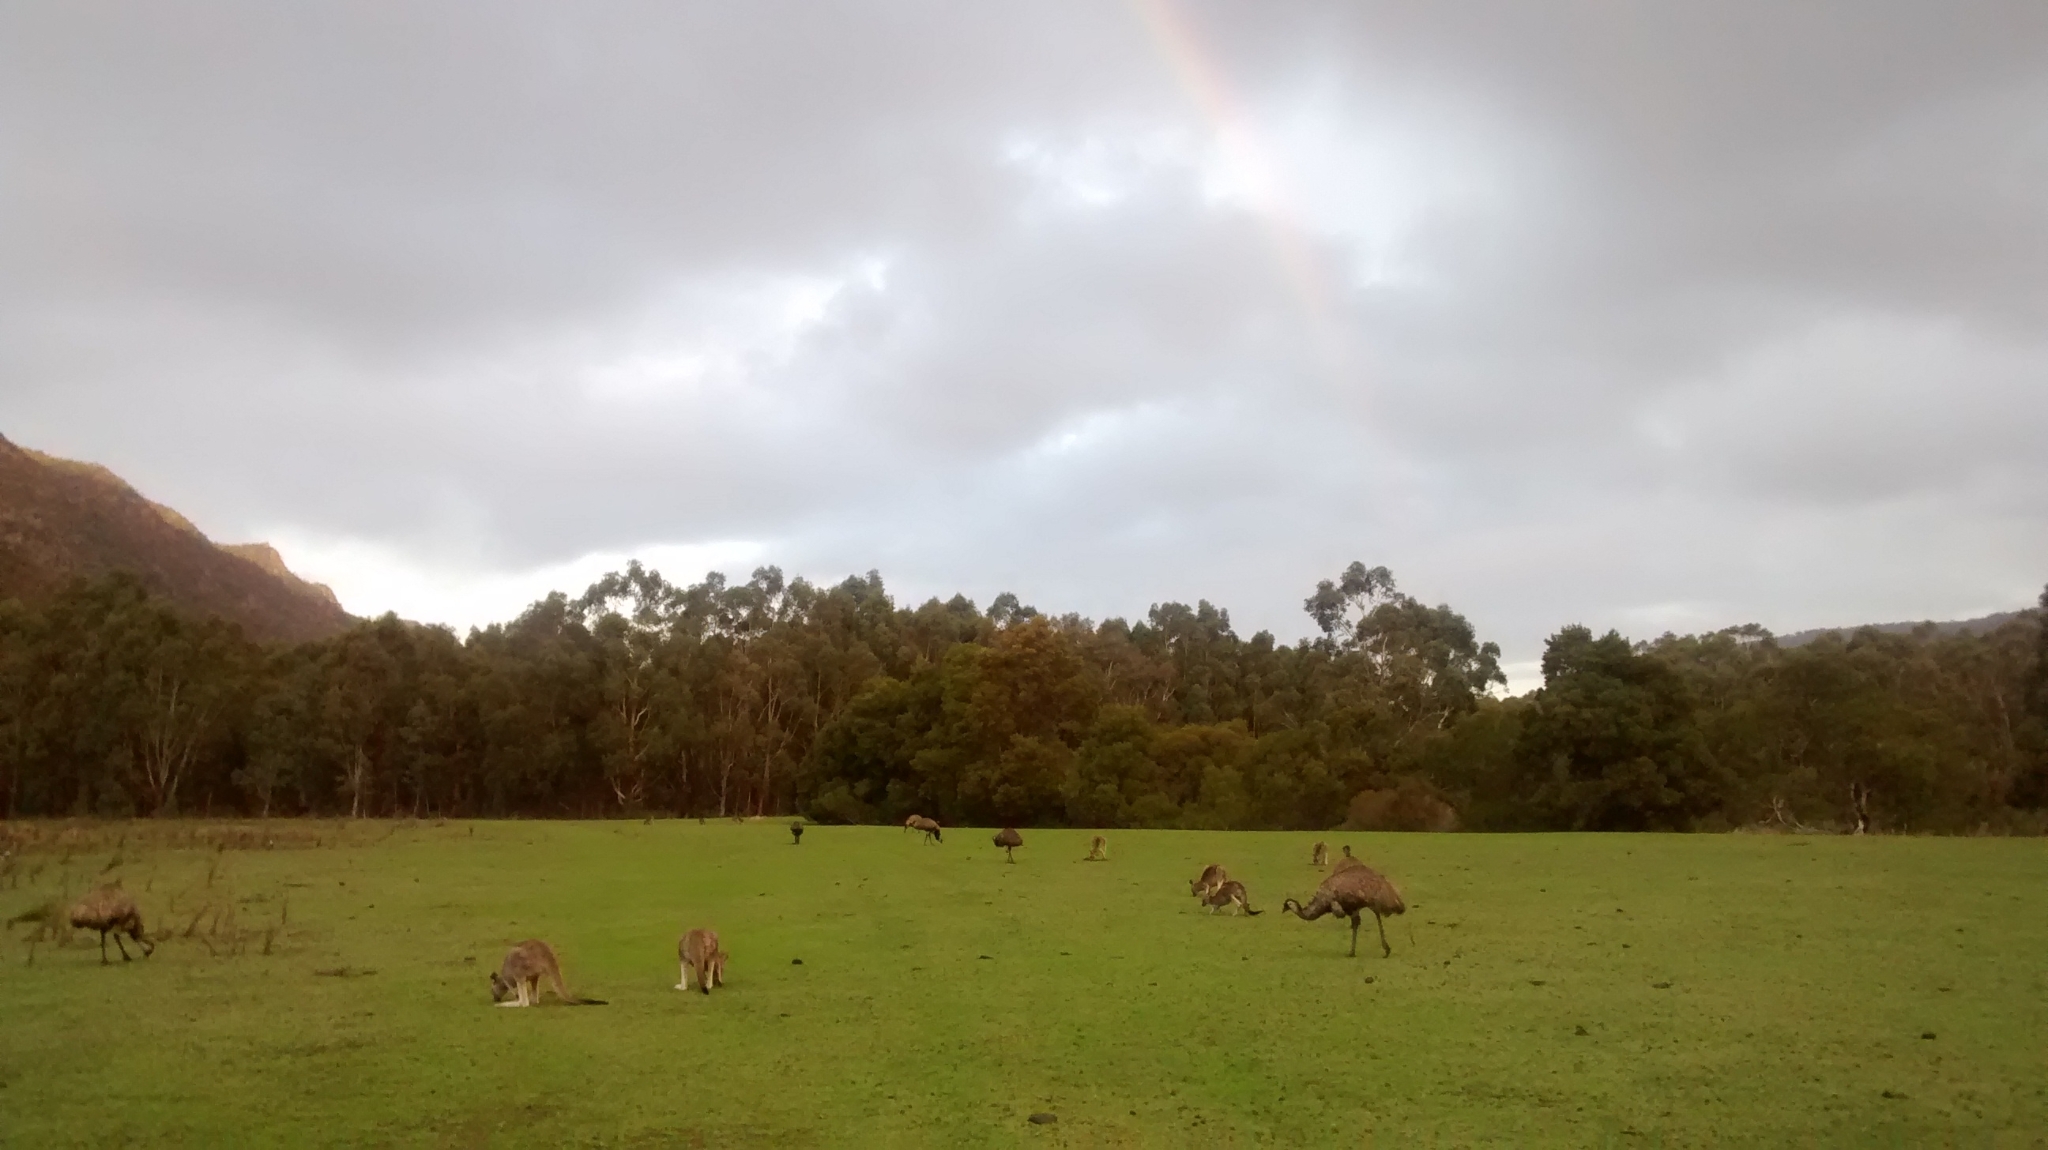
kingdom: Animalia
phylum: Chordata
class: Mammalia
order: Diprotodontia
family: Macropodidae
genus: Macropus
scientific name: Macropus giganteus
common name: Eastern grey kangaroo
